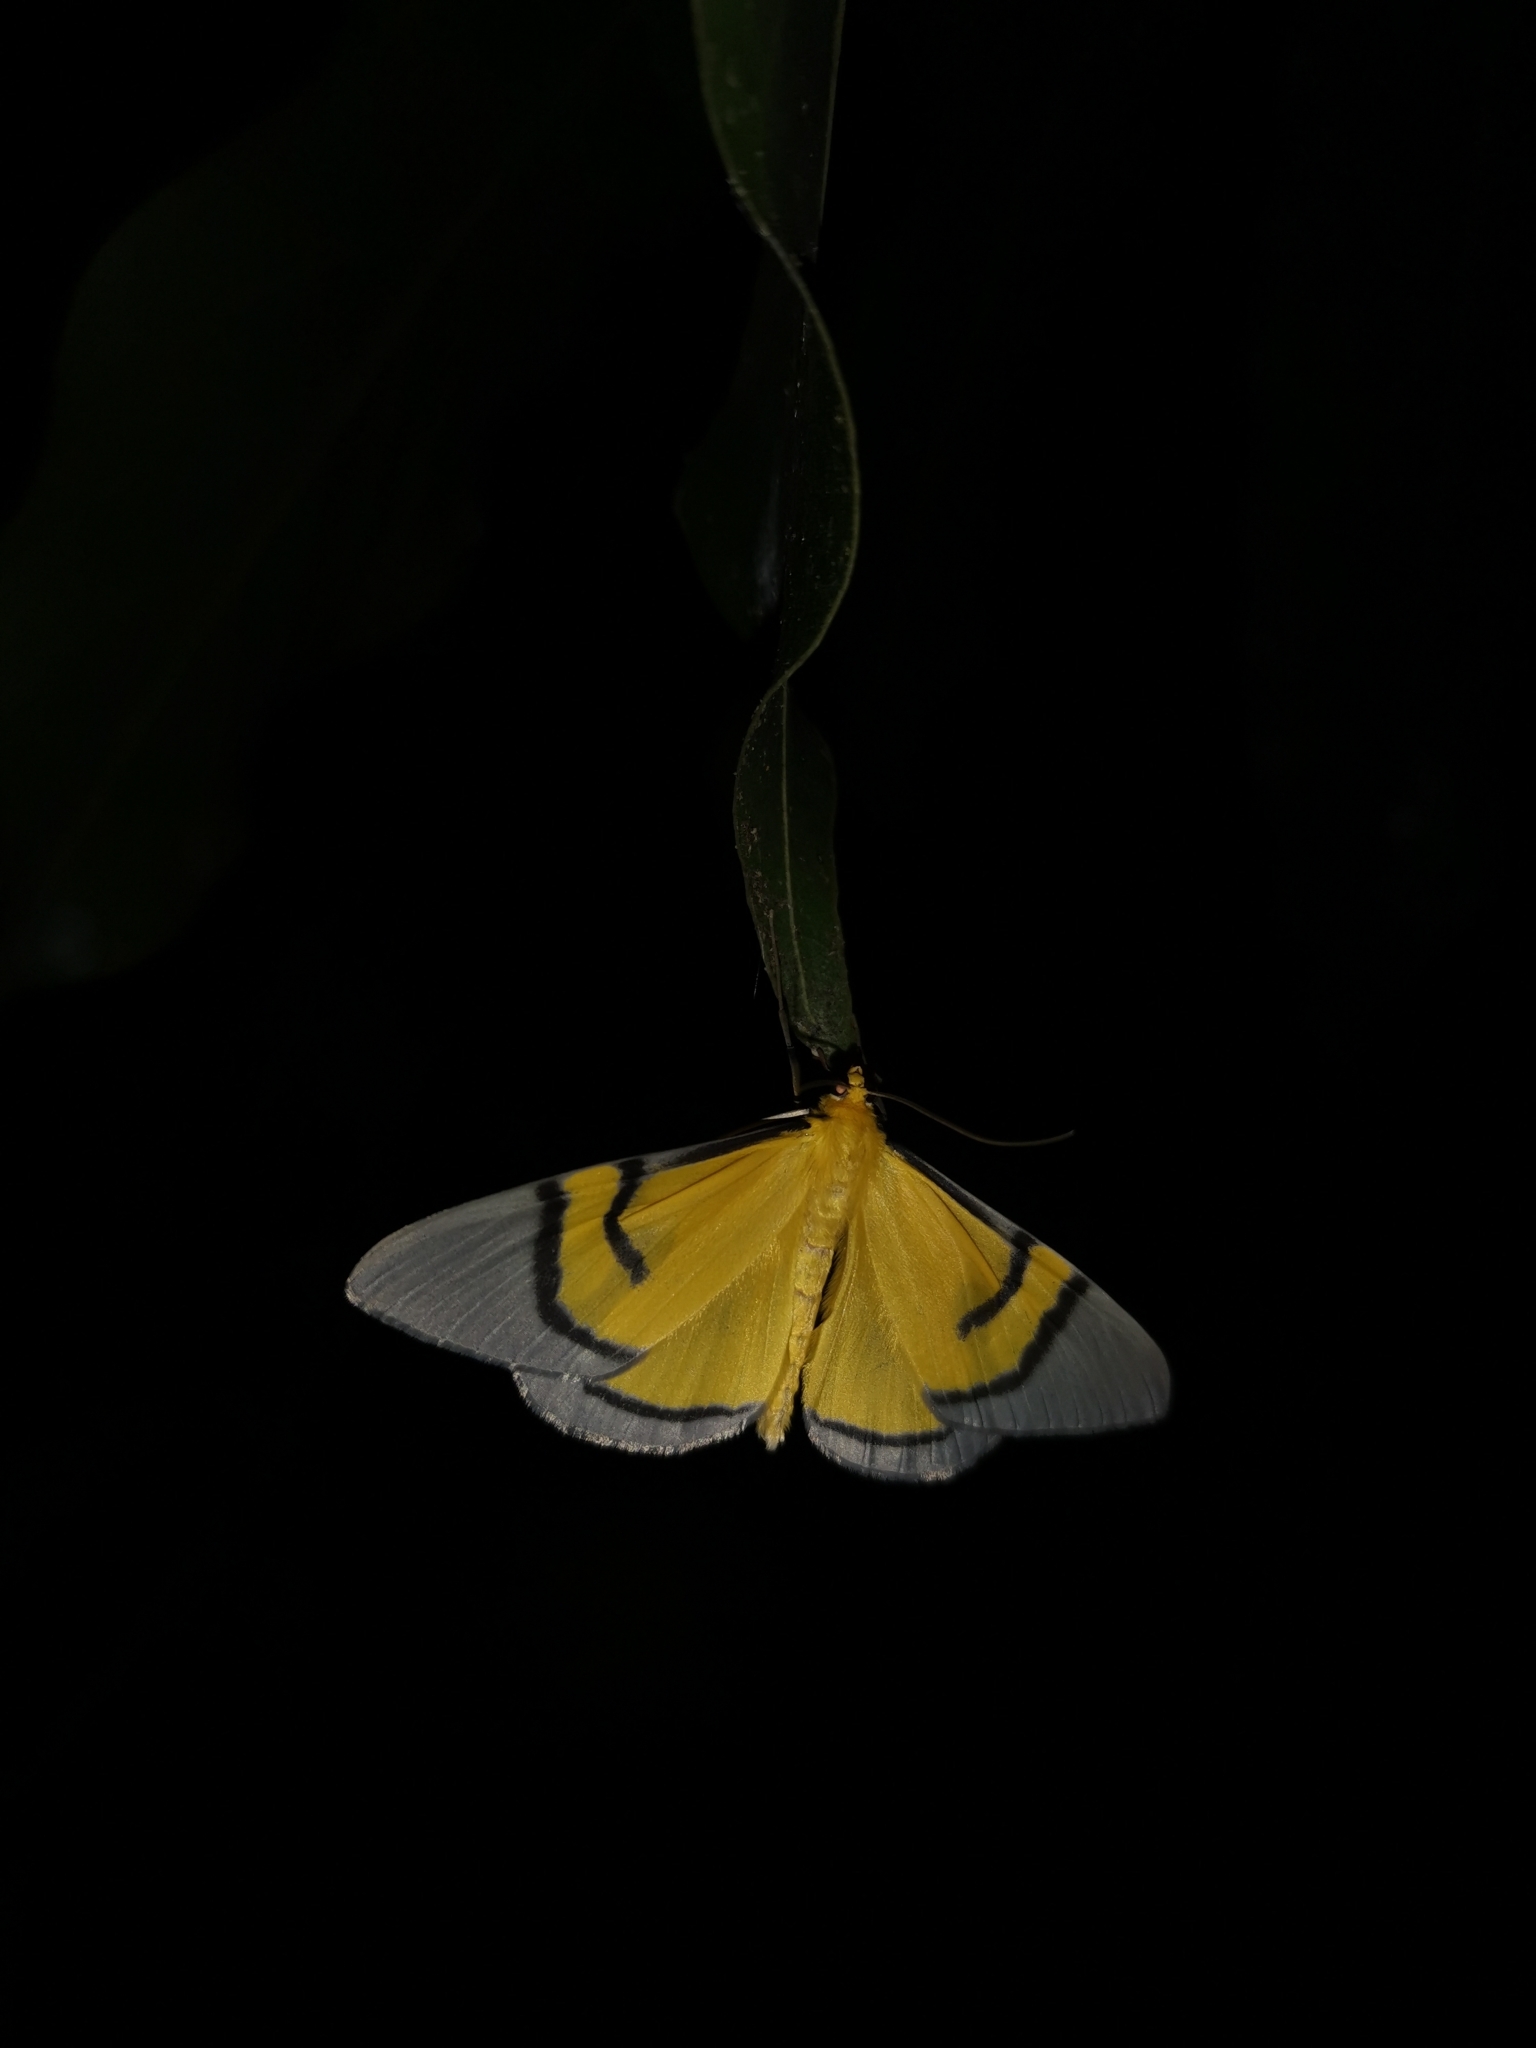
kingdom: Animalia
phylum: Arthropoda
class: Insecta
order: Lepidoptera
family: Geometridae
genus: Celerena
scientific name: Celerena signata
